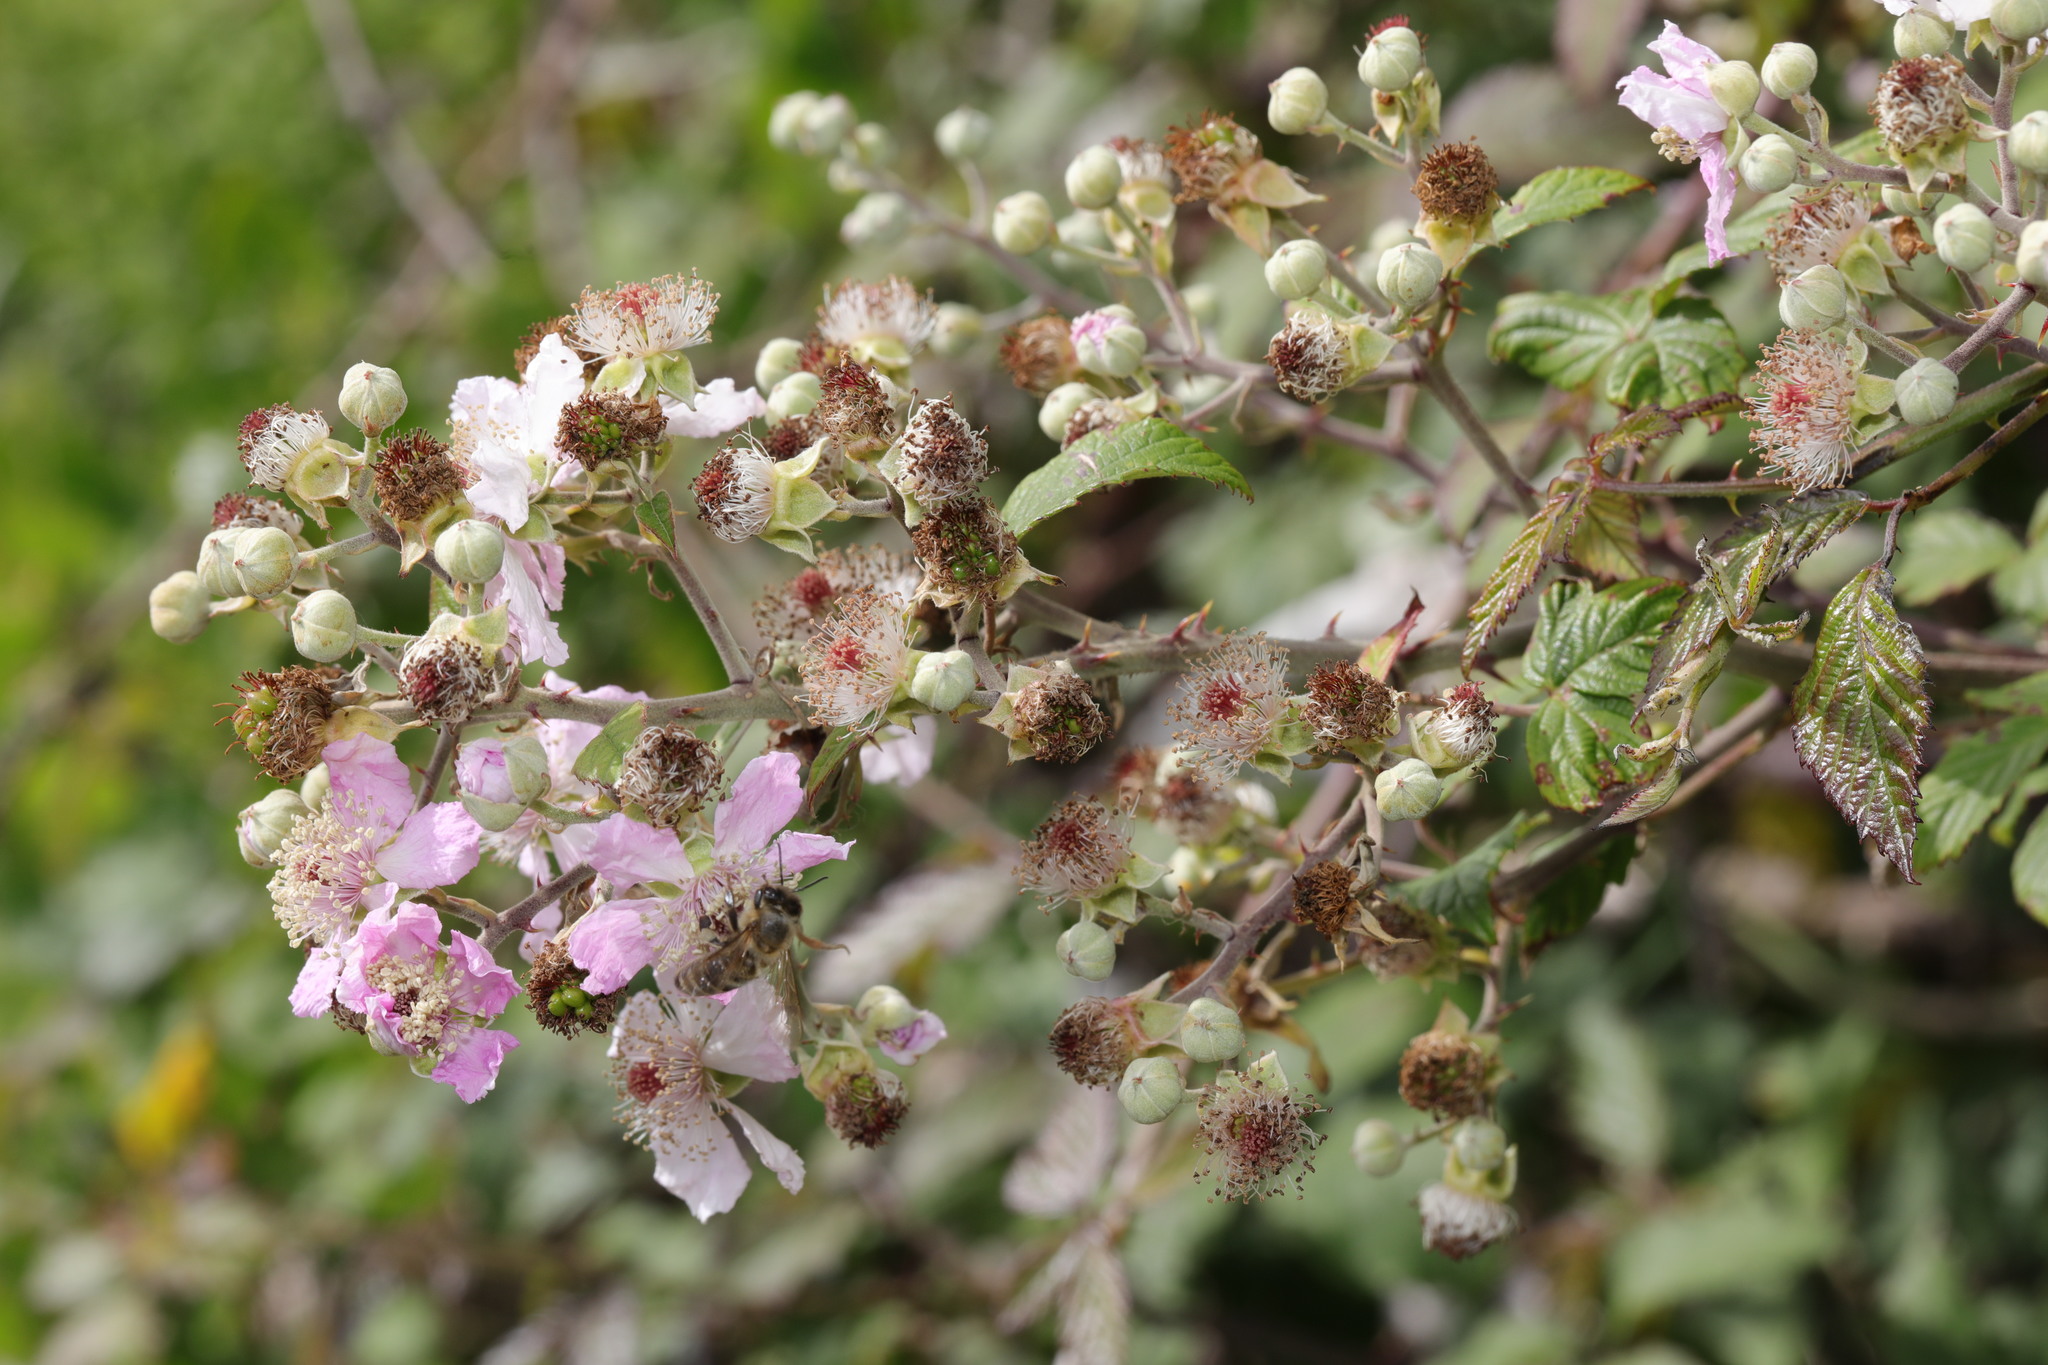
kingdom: Plantae
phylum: Tracheophyta
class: Magnoliopsida
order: Rosales
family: Rosaceae
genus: Rubus
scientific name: Rubus ulmifolius
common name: Elmleaf blackberry
